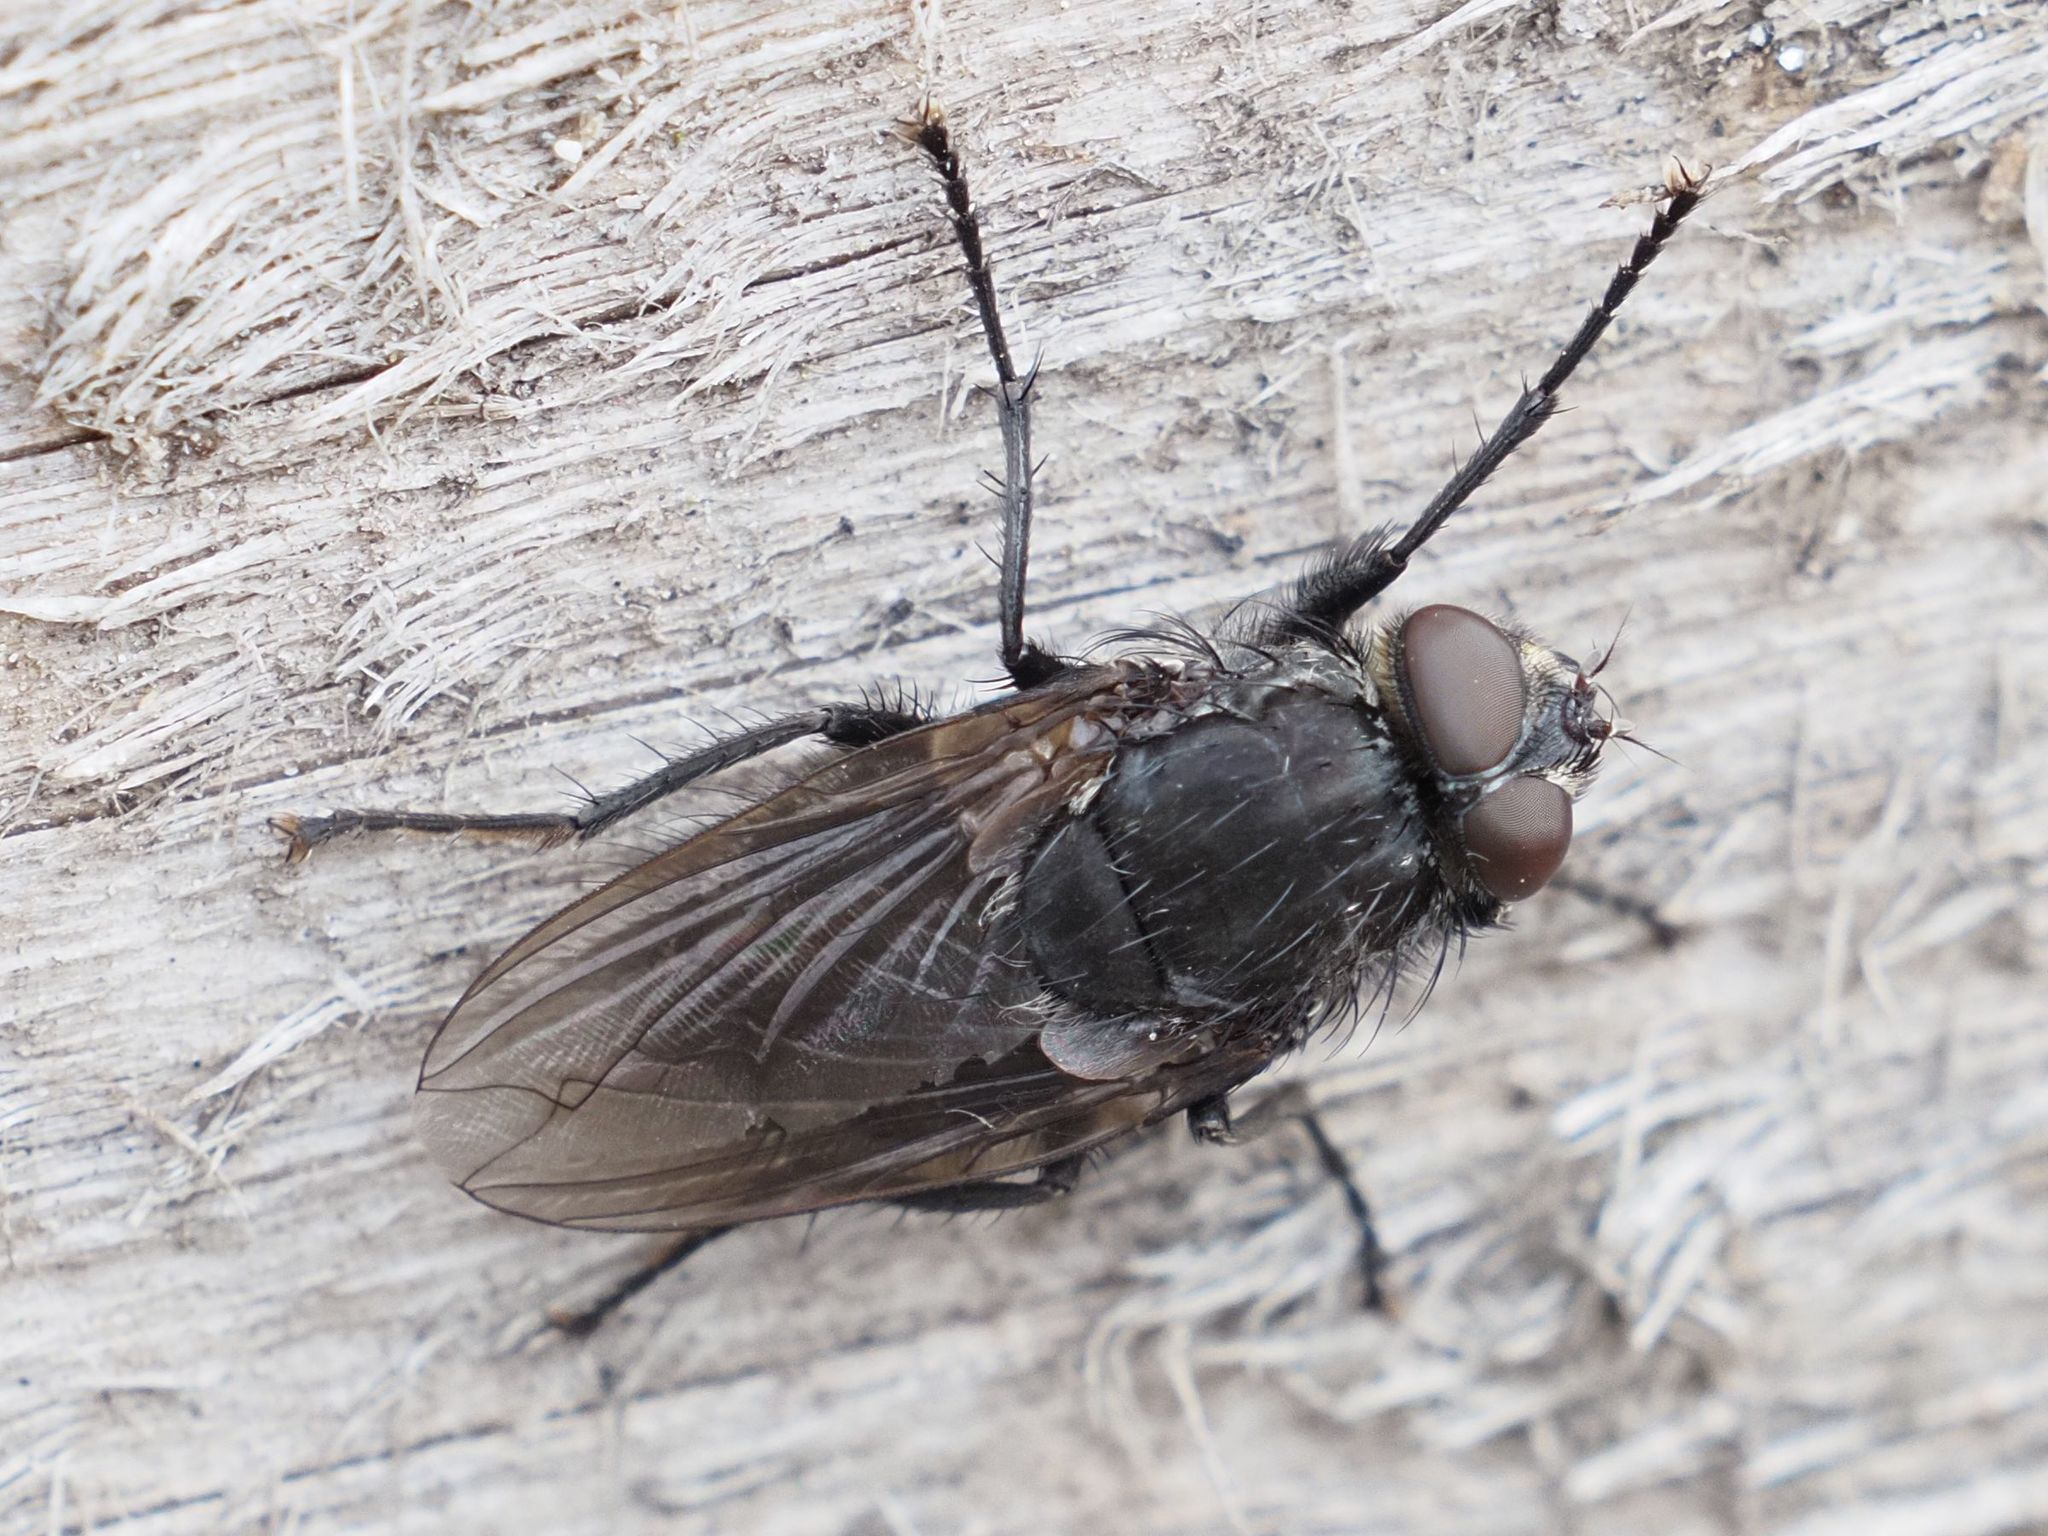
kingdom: Animalia
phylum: Arthropoda
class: Insecta
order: Diptera
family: Polleniidae
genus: Pollenia
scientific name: Pollenia vagabunda
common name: Vagabund cluster fly
